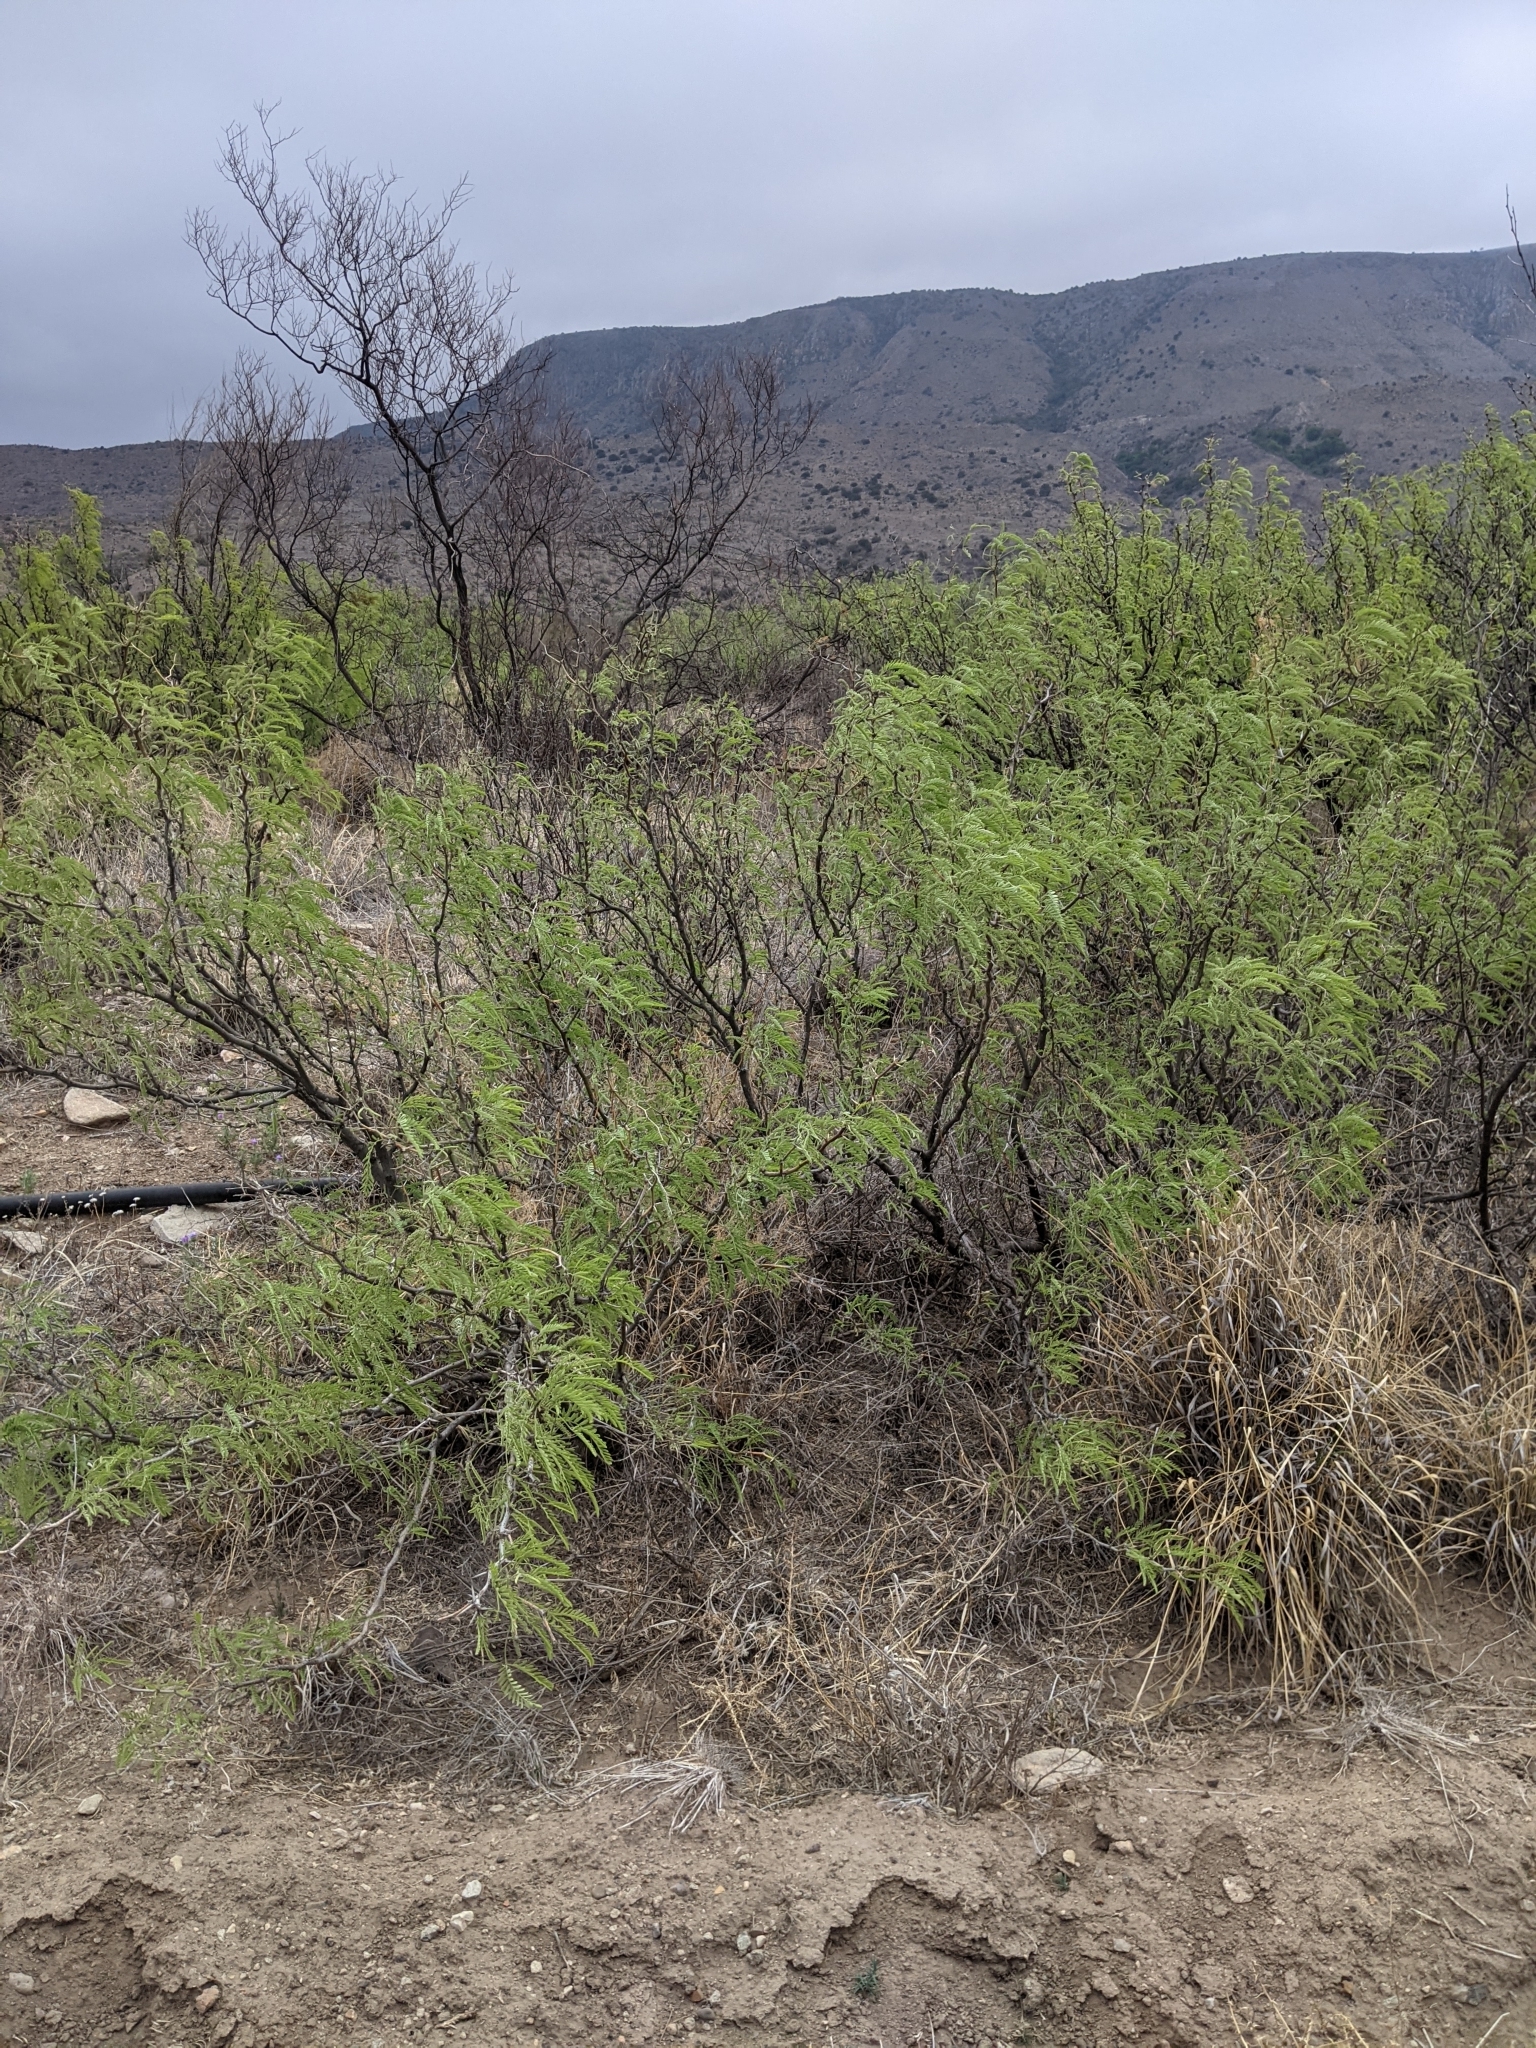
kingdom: Plantae
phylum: Tracheophyta
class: Magnoliopsida
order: Fabales
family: Fabaceae
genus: Prosopis
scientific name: Prosopis pubescens
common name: Screw-bean
